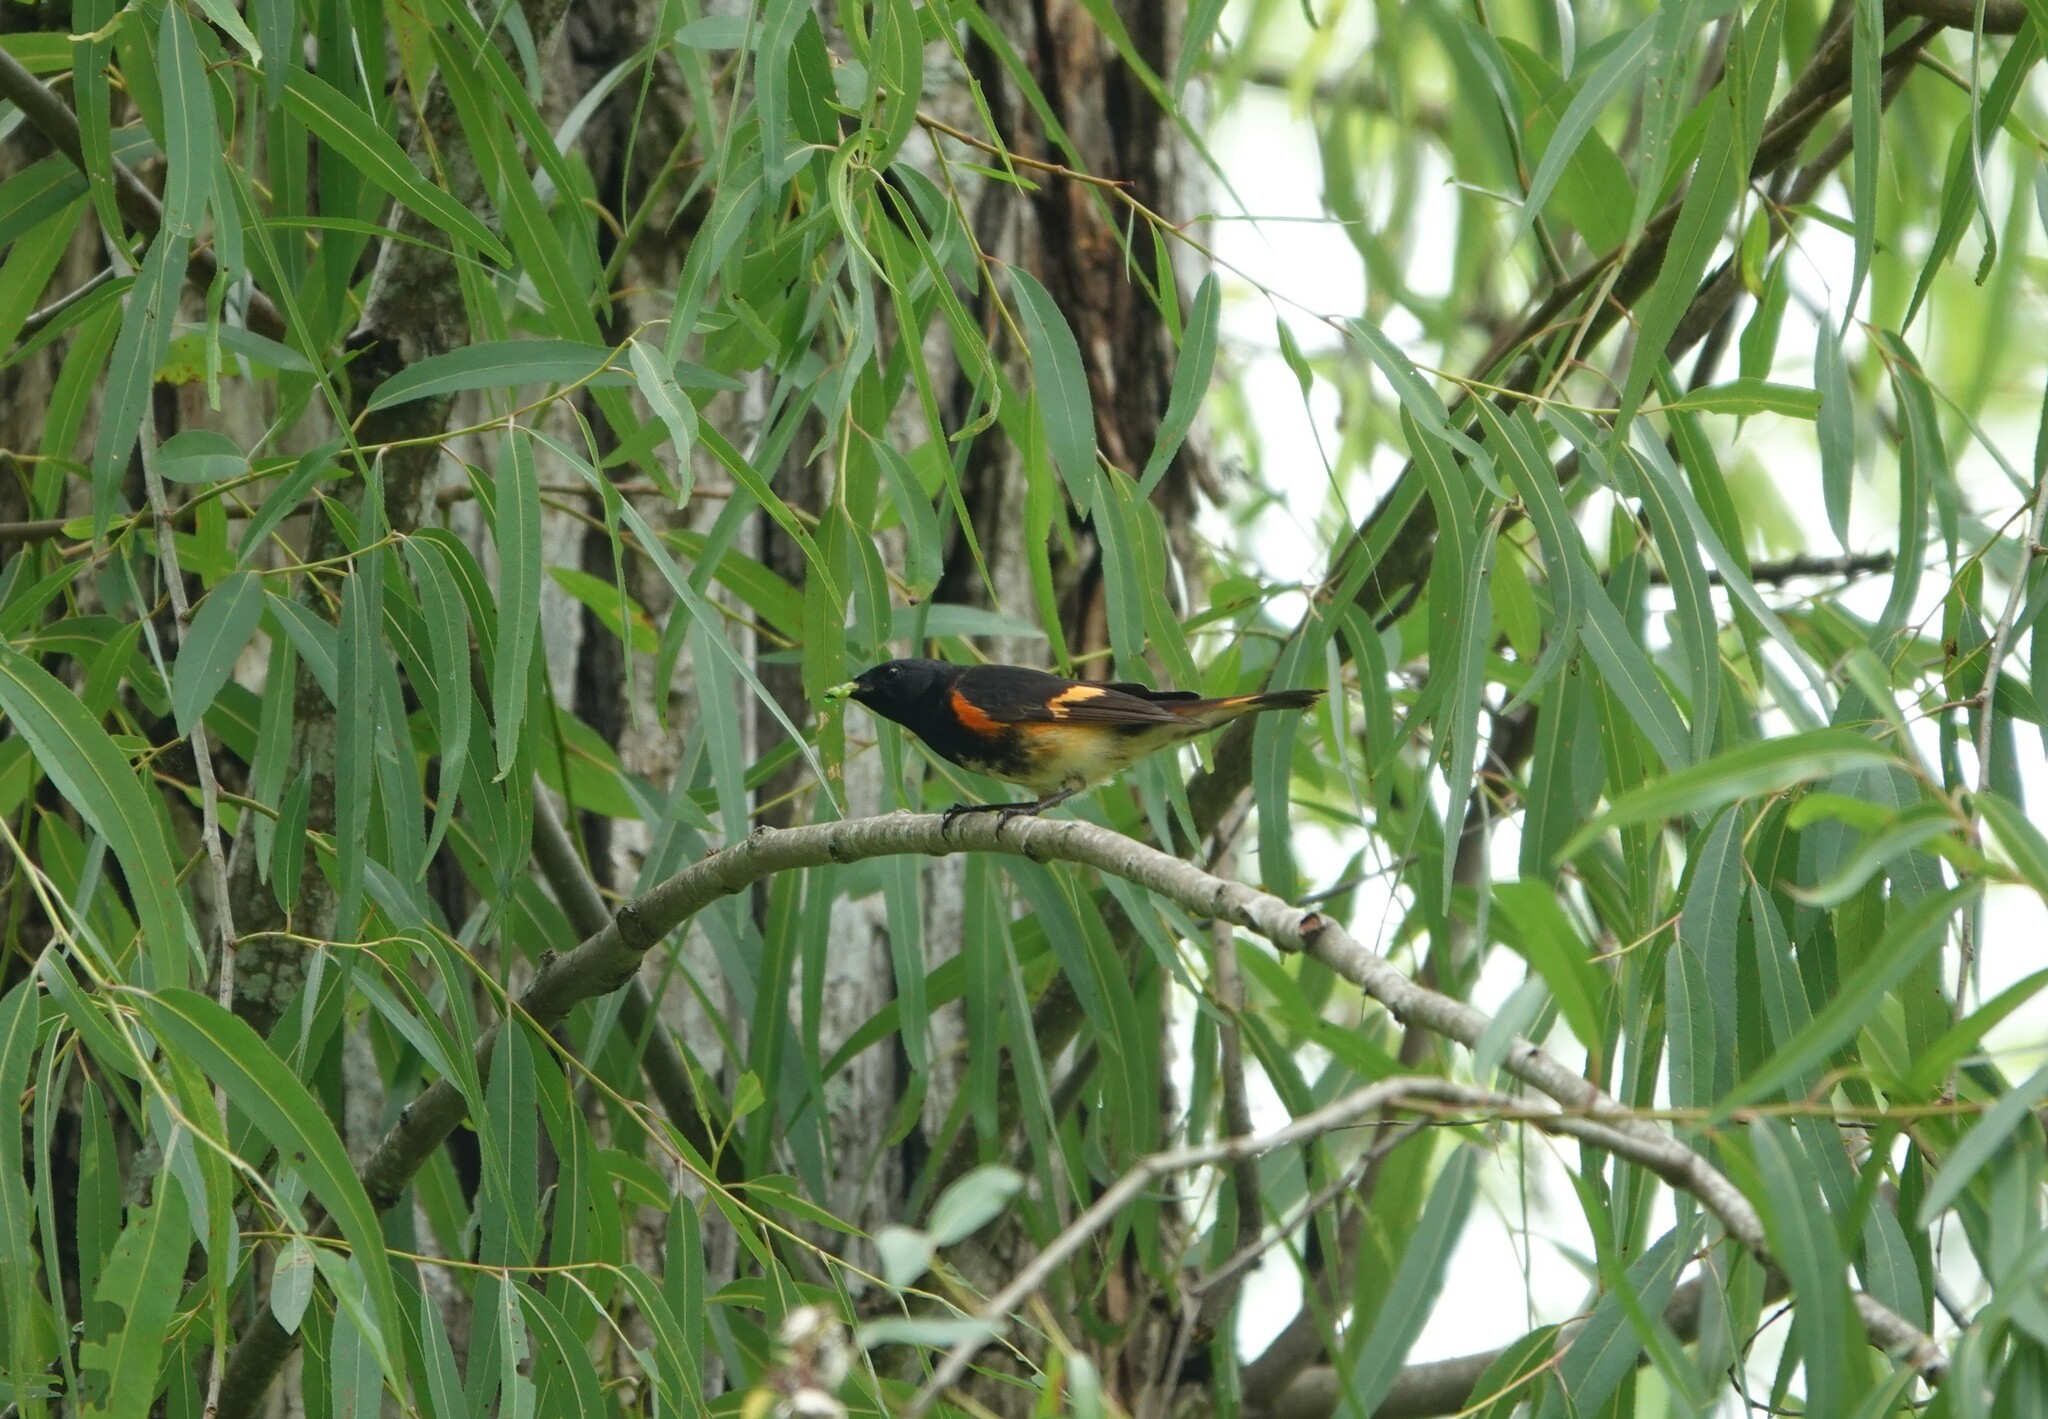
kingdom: Animalia
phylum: Chordata
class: Aves
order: Passeriformes
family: Parulidae
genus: Setophaga
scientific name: Setophaga ruticilla
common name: American redstart
